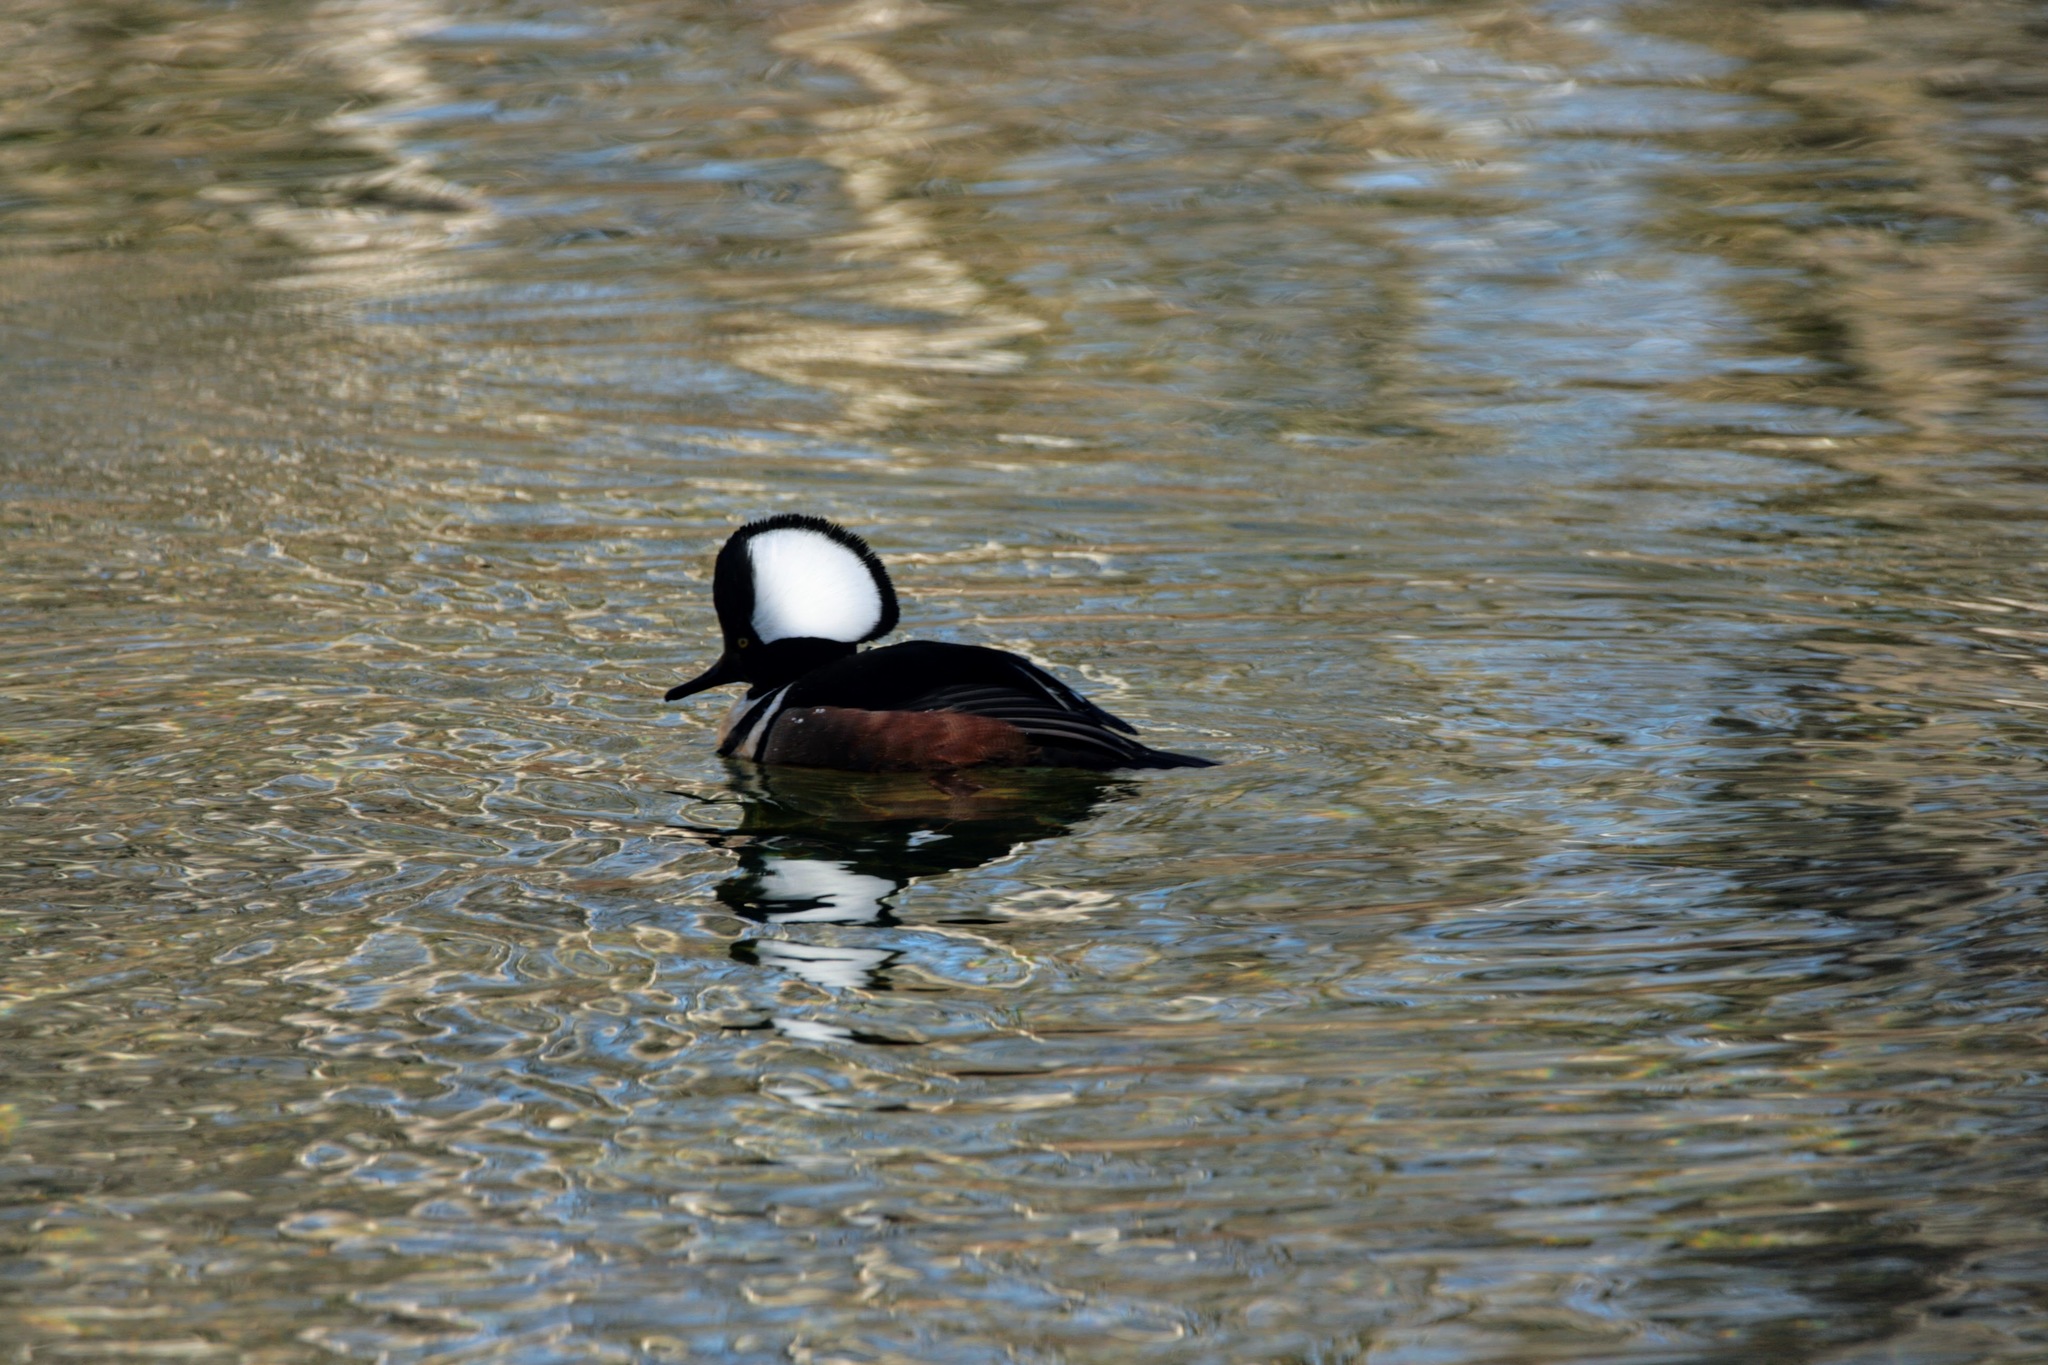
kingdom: Animalia
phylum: Chordata
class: Aves
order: Anseriformes
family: Anatidae
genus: Lophodytes
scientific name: Lophodytes cucullatus
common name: Hooded merganser
